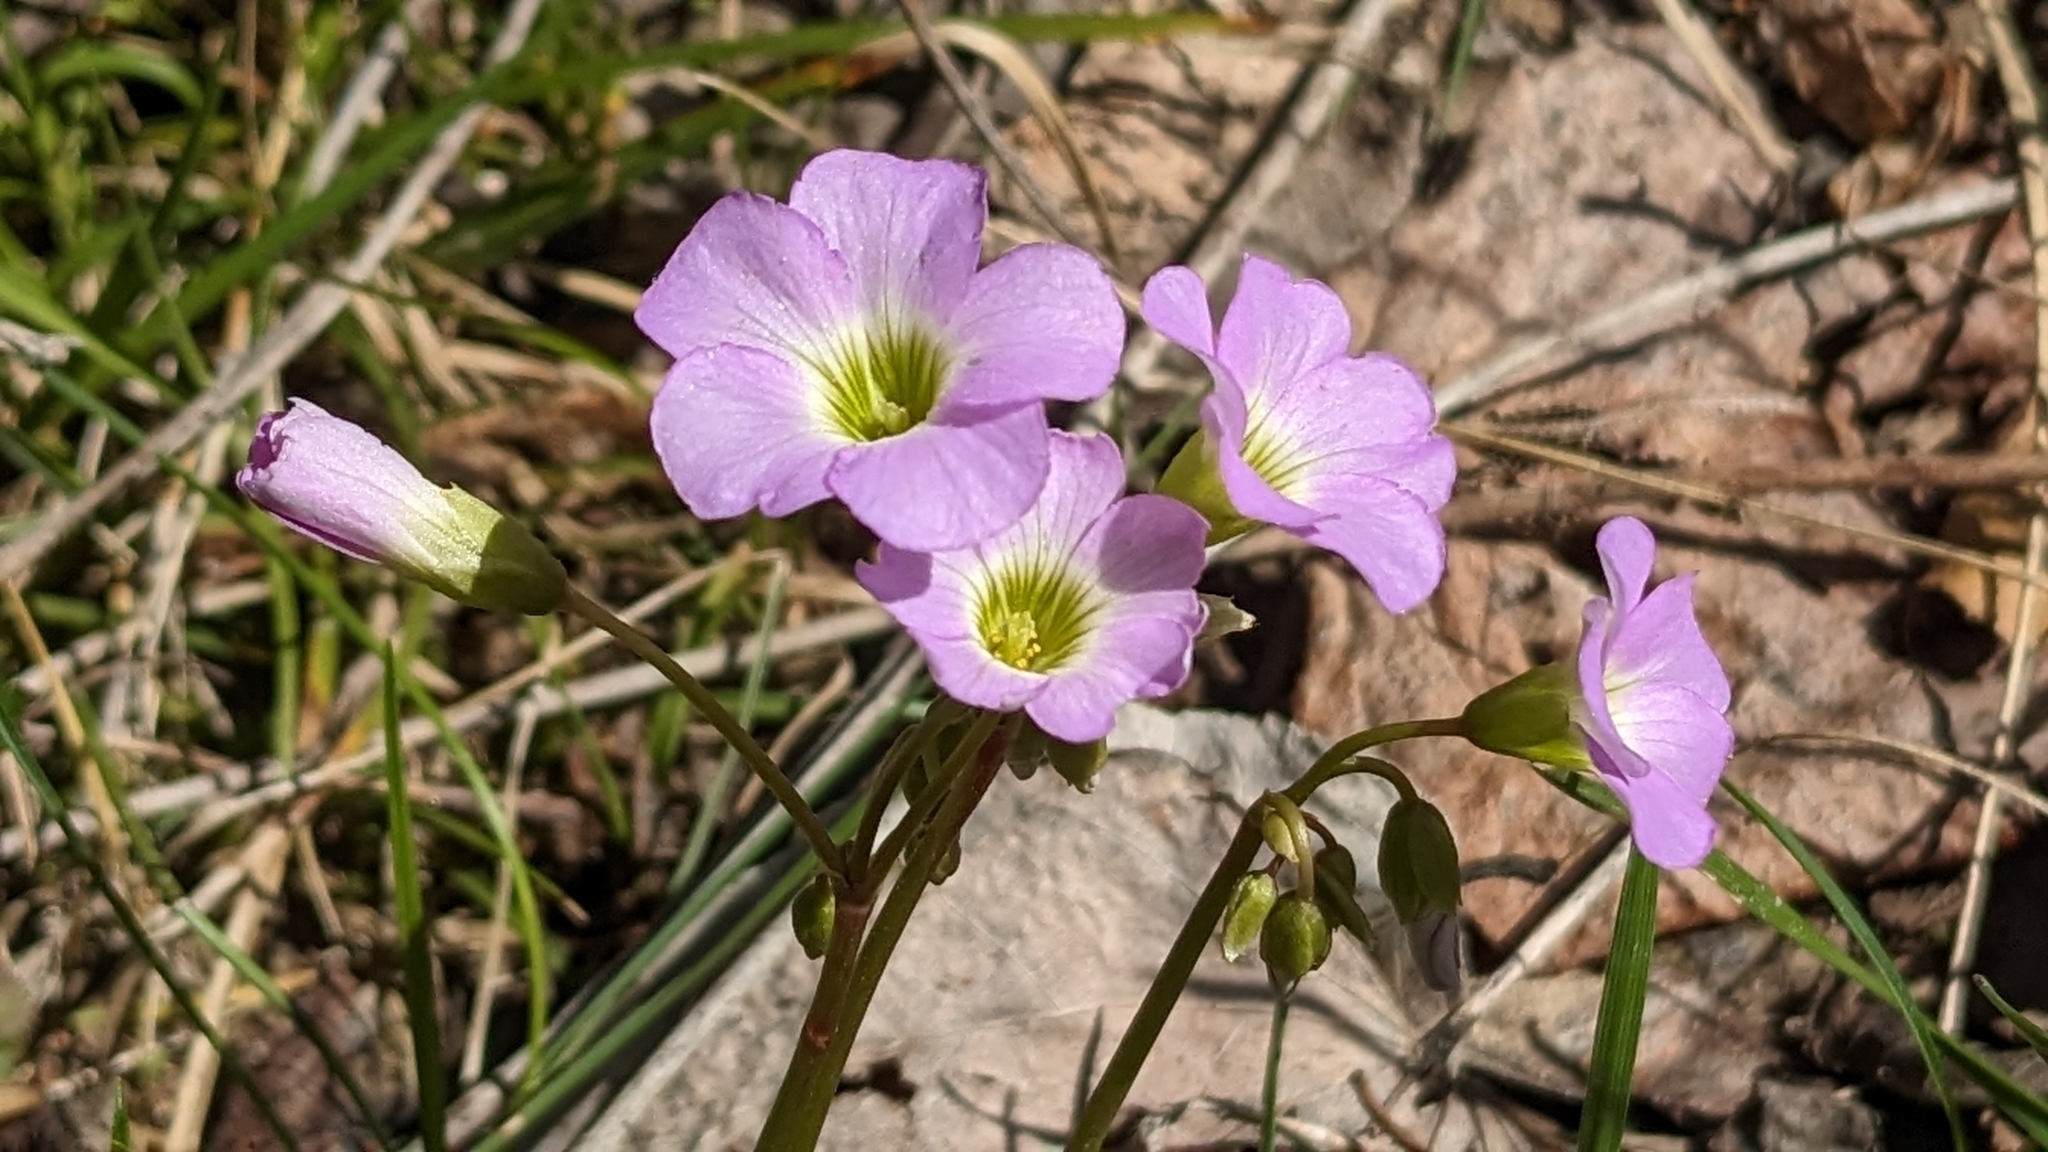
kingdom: Plantae
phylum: Tracheophyta
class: Magnoliopsida
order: Oxalidales
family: Oxalidaceae
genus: Oxalis
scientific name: Oxalis violacea
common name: Violet wood-sorrel
